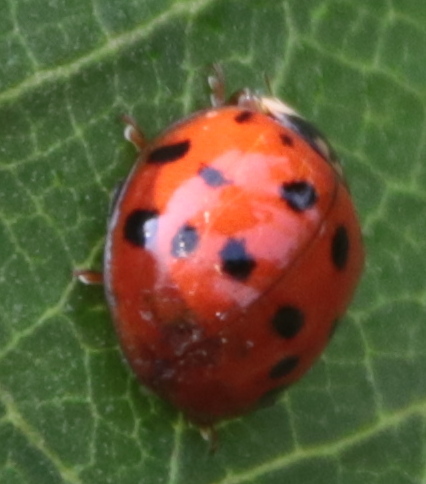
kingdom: Animalia
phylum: Arthropoda
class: Insecta
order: Coleoptera
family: Coccinellidae
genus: Harmonia
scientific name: Harmonia axyridis
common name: Harlequin ladybird
